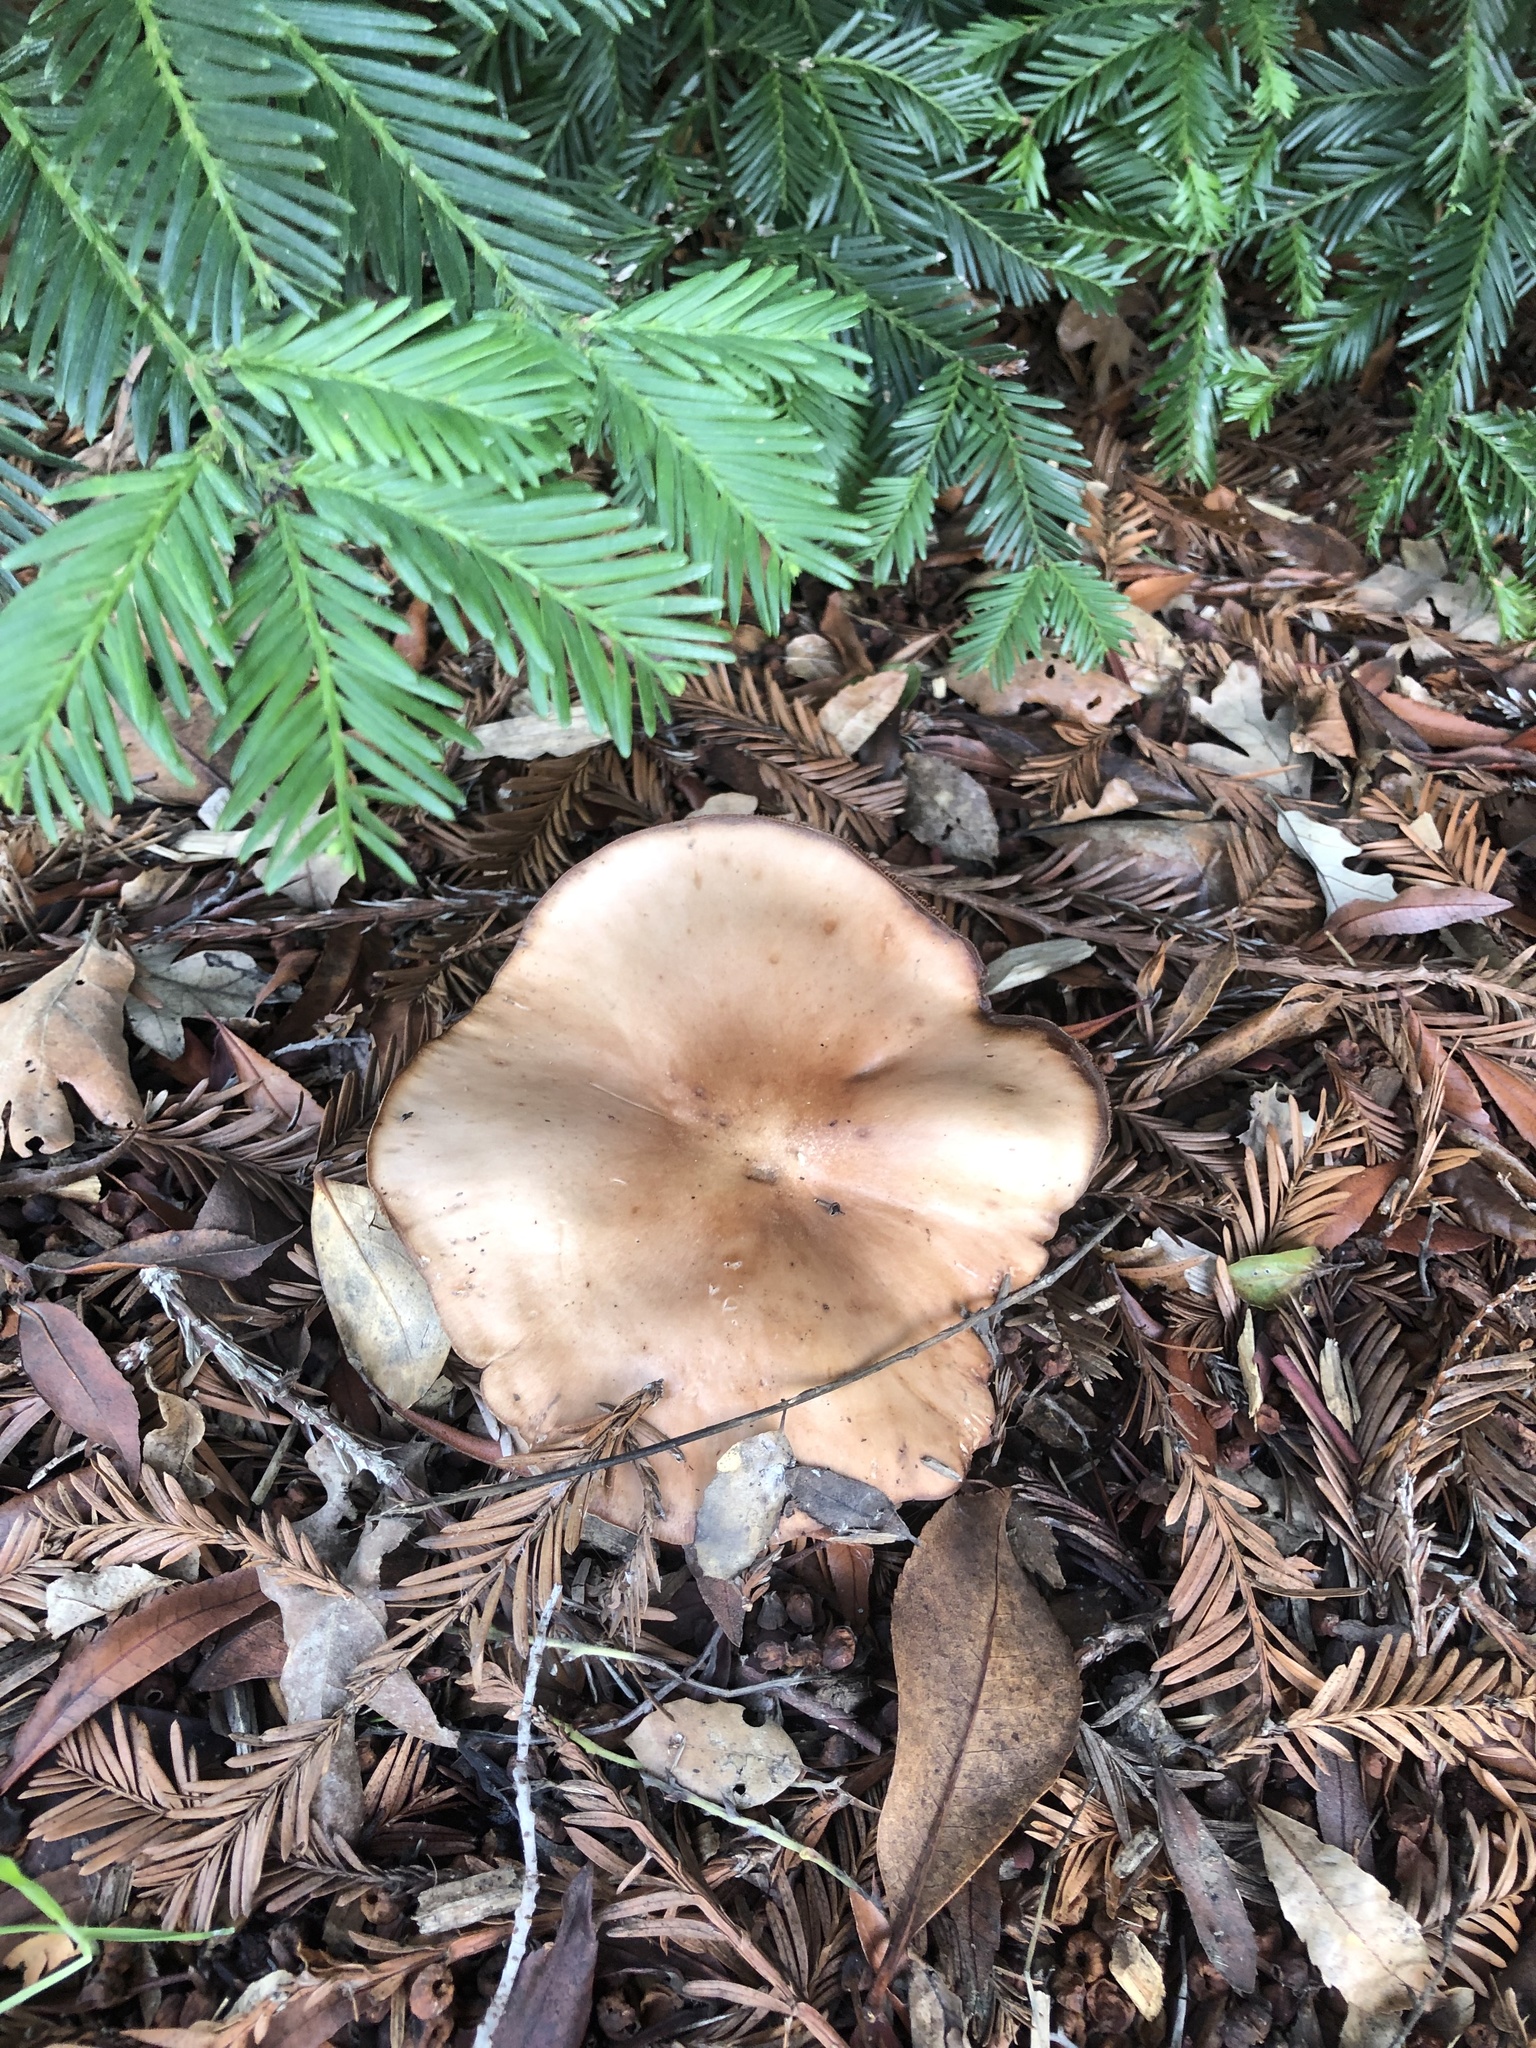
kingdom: Fungi
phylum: Basidiomycota
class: Agaricomycetes
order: Agaricales
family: Tricholomataceae
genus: Collybia
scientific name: Collybia
